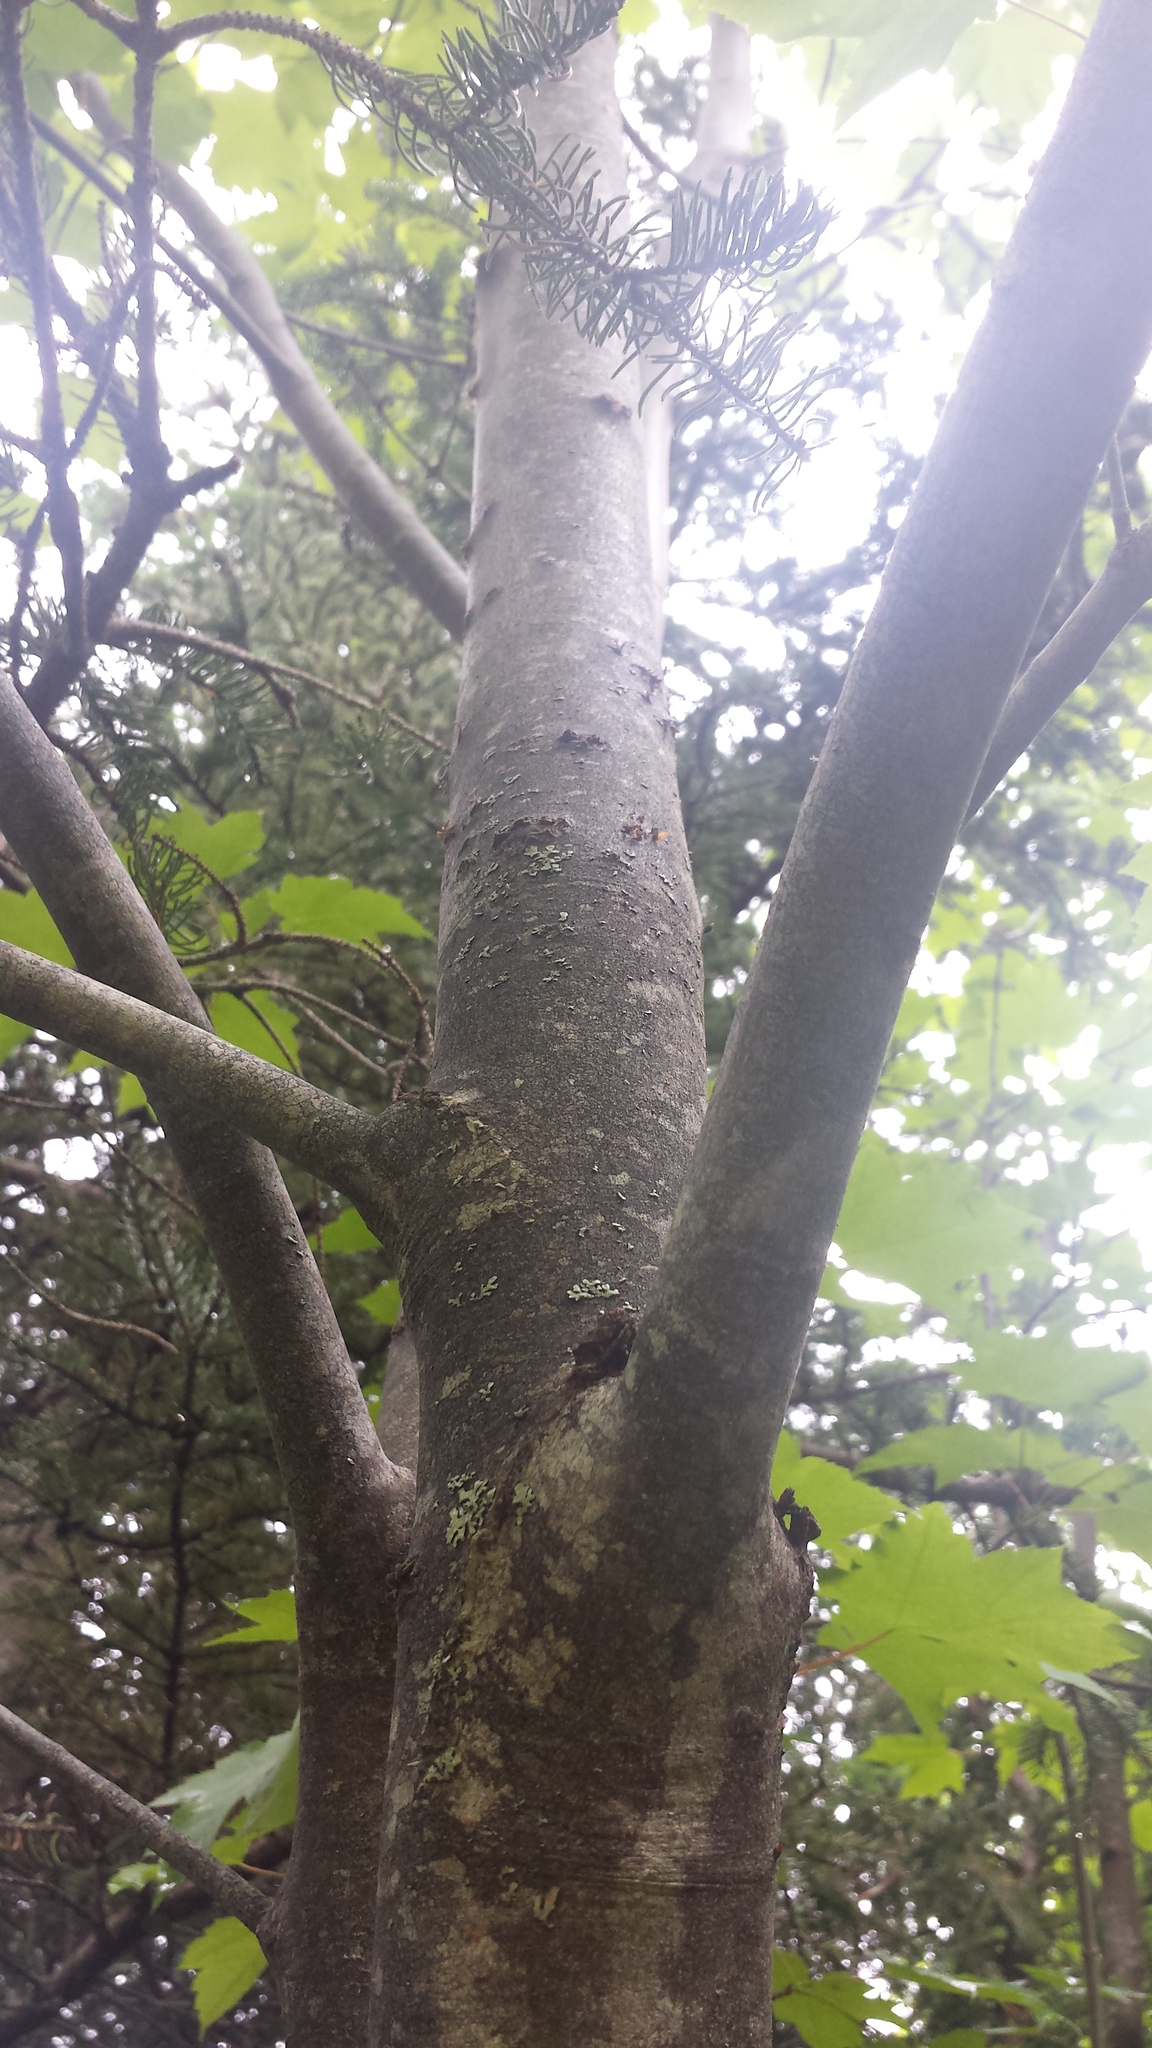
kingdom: Plantae
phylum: Tracheophyta
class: Magnoliopsida
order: Sapindales
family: Sapindaceae
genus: Acer
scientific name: Acer rubrum
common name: Red maple
